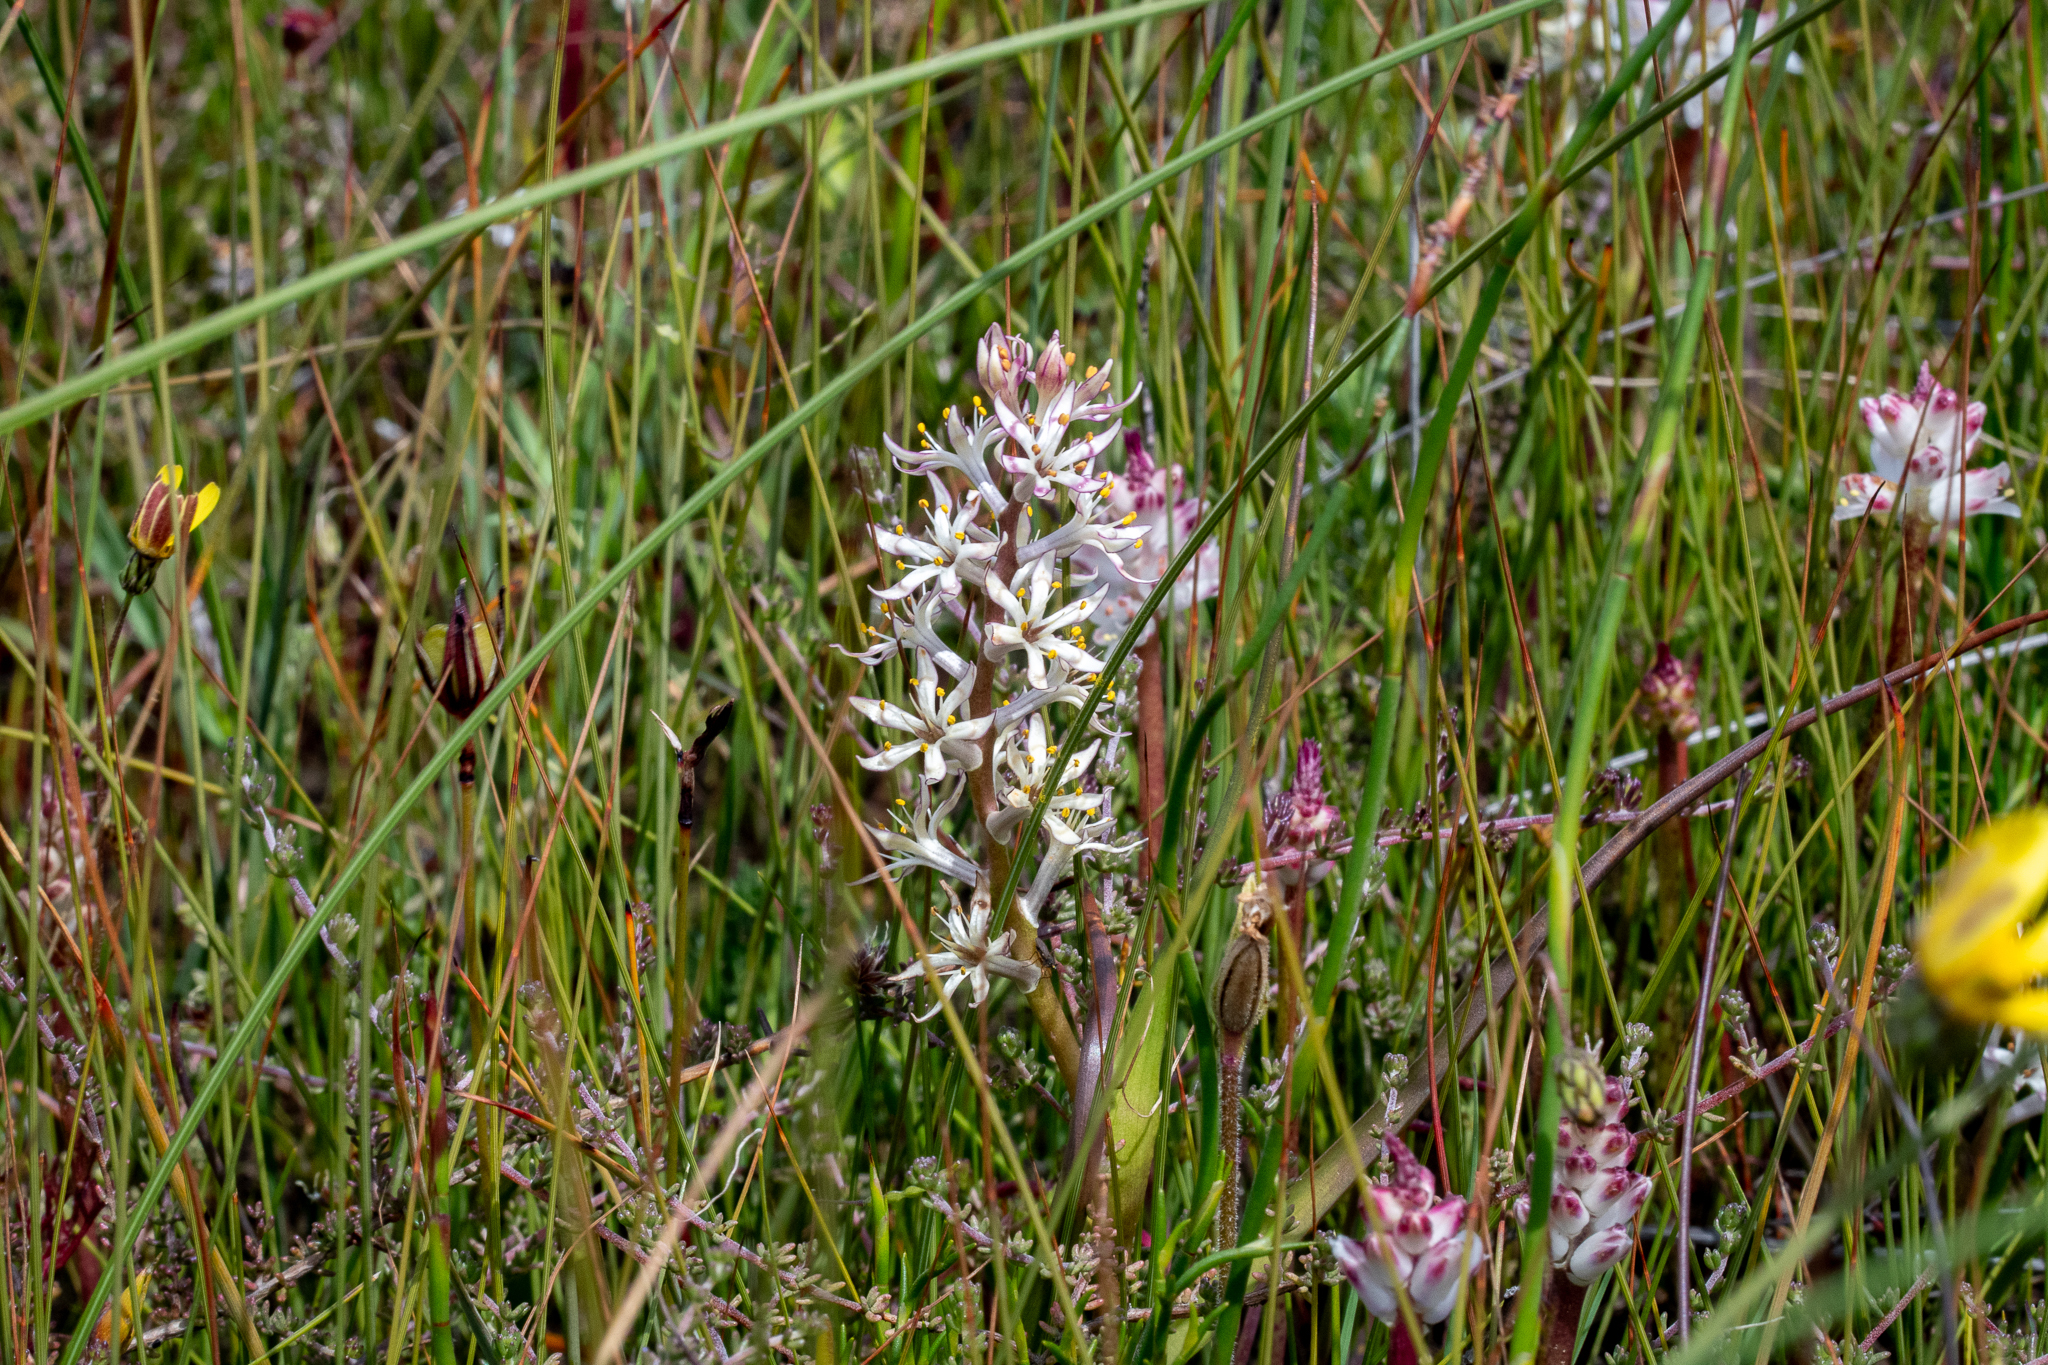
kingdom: Plantae
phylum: Tracheophyta
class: Liliopsida
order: Liliales
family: Colchicaceae
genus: Wurmbea
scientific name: Wurmbea variabilis
